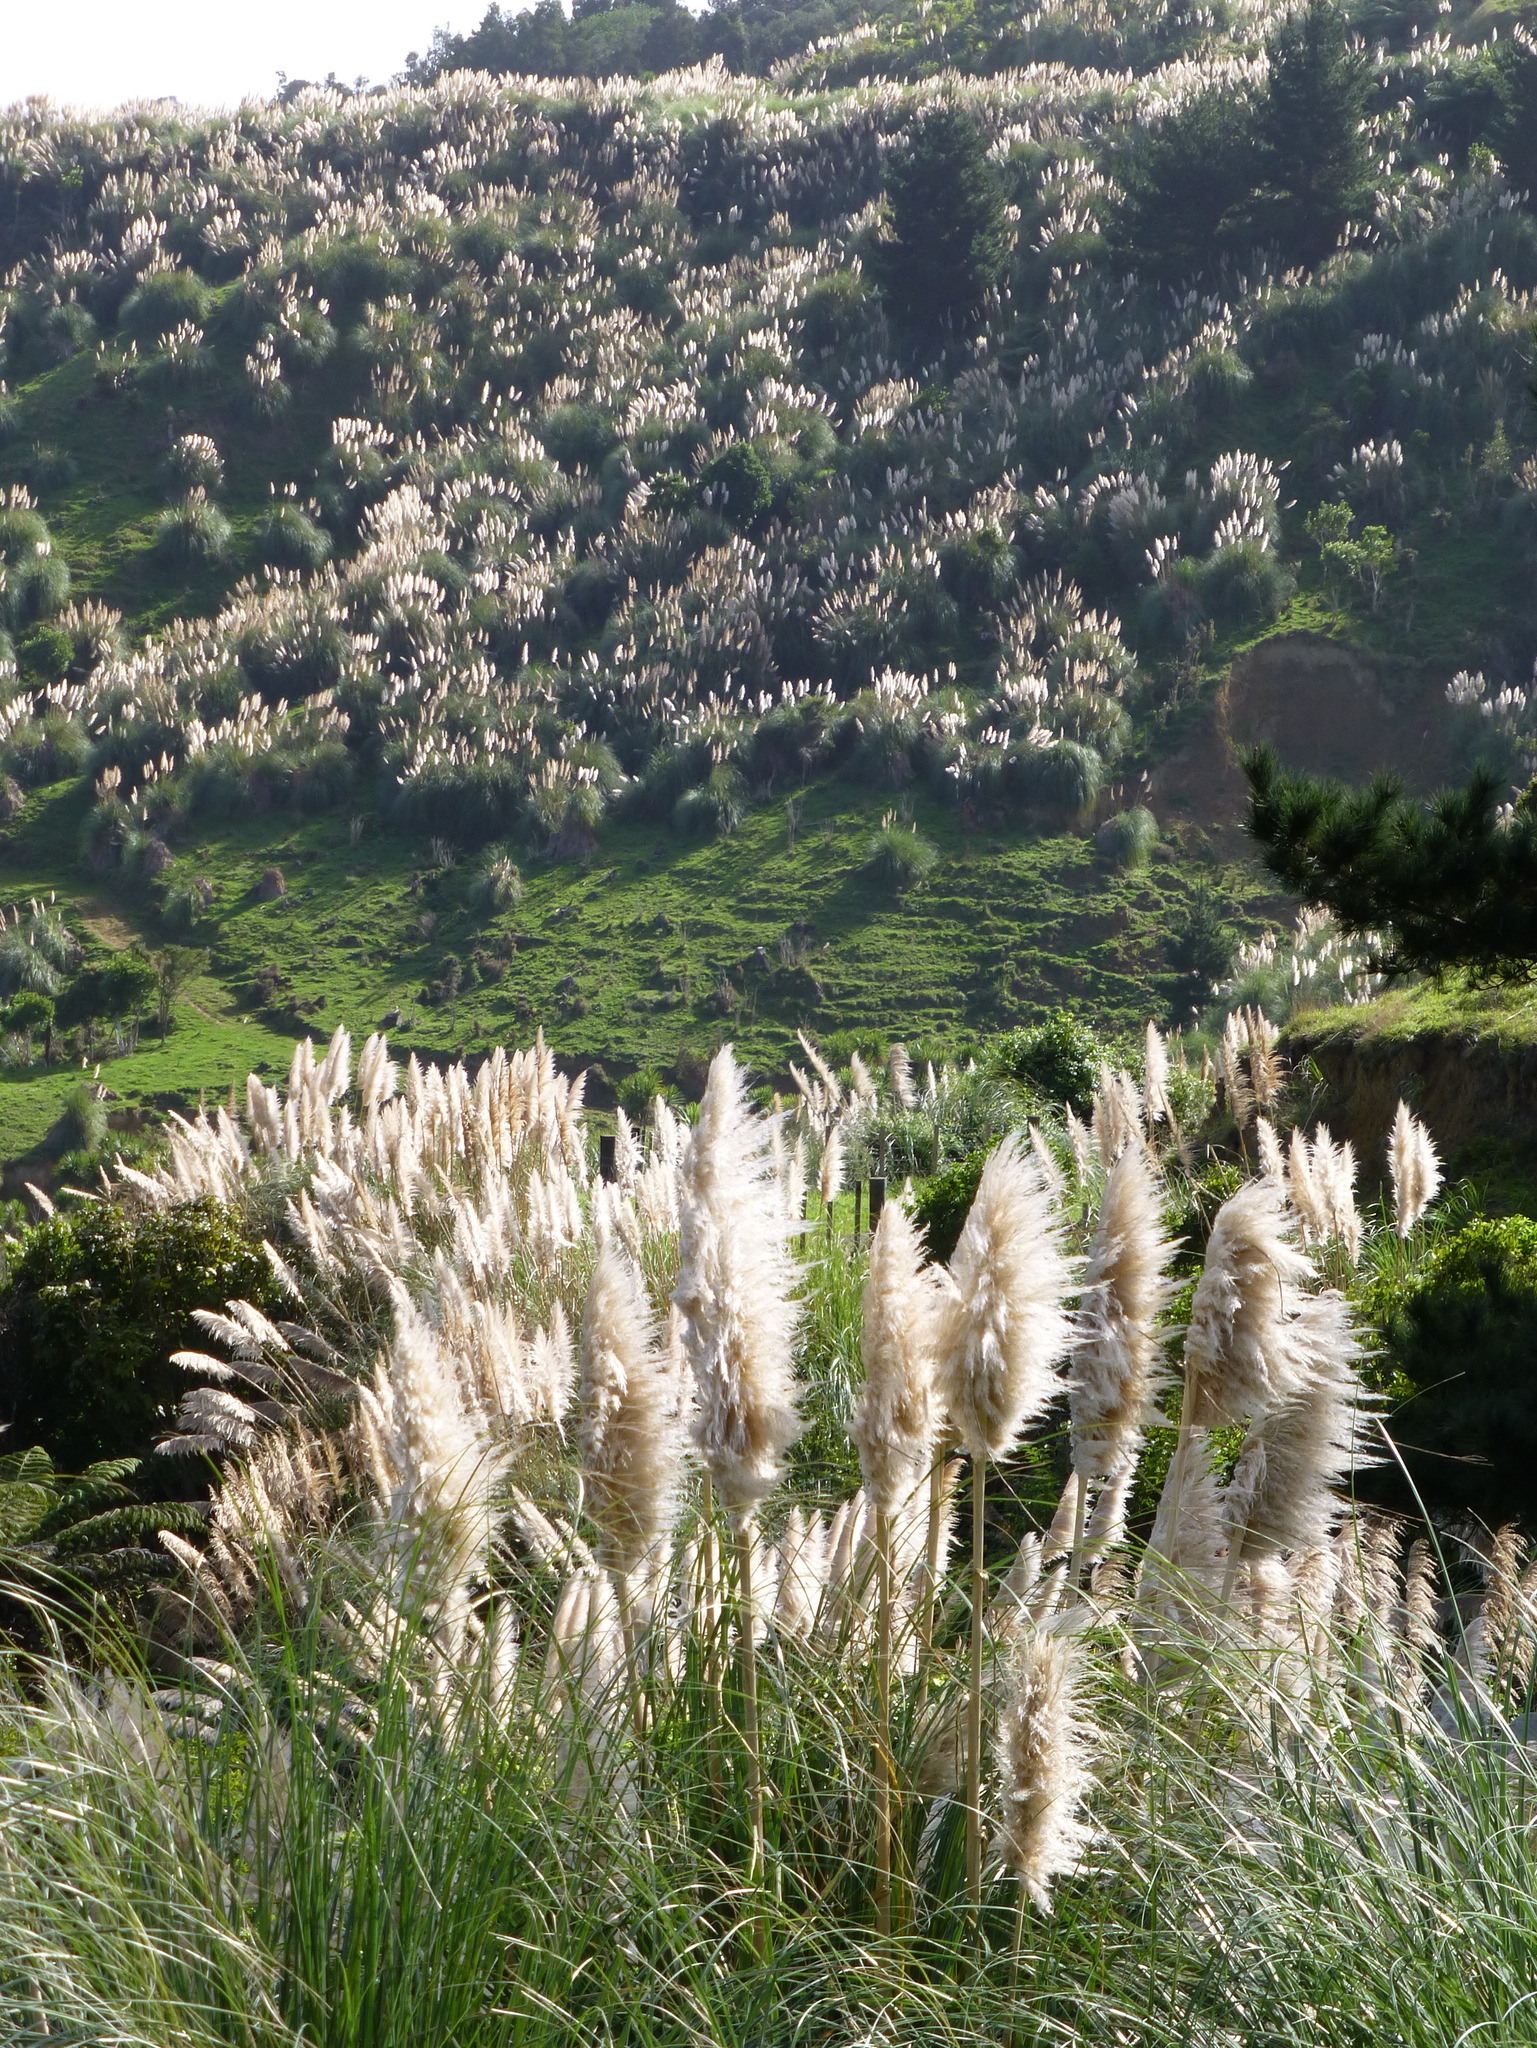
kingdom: Plantae
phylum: Tracheophyta
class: Liliopsida
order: Poales
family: Poaceae
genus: Cortaderia
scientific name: Cortaderia selloana
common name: Uruguayan pampas grass
